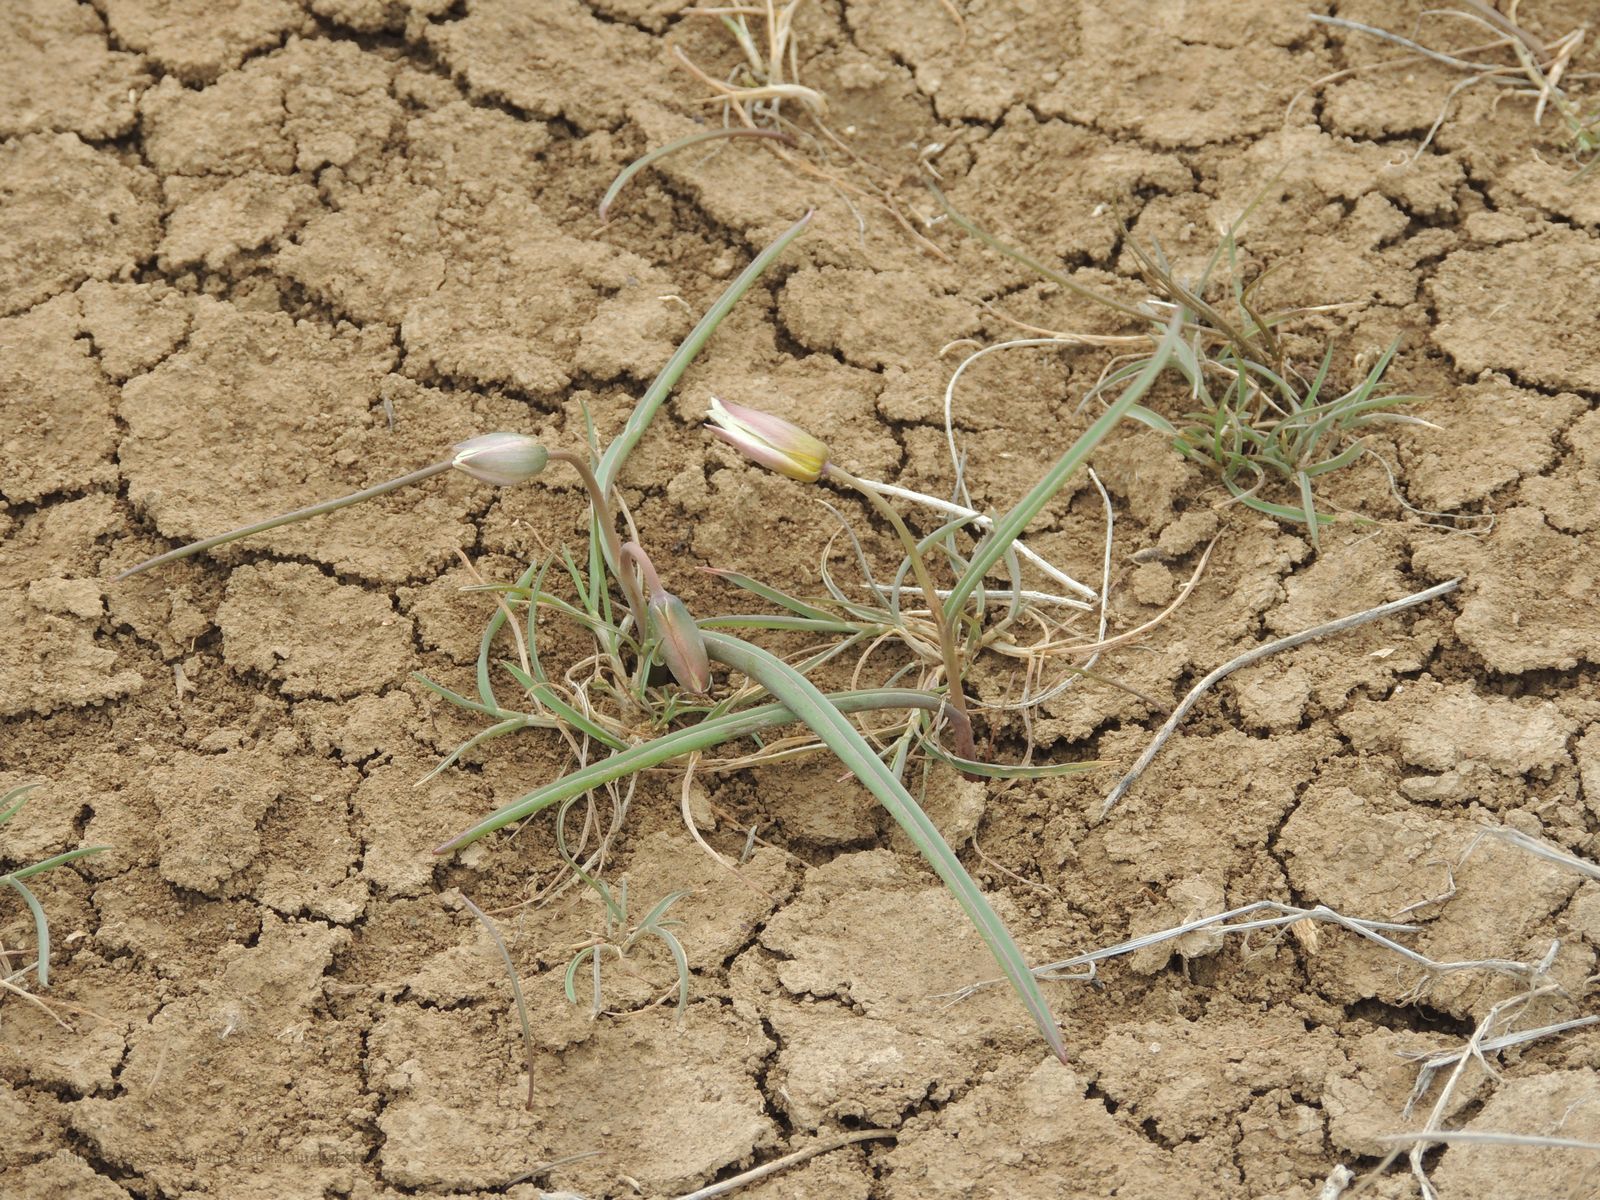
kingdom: Plantae
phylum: Tracheophyta
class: Liliopsida
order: Liliales
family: Liliaceae
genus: Tulipa
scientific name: Tulipa biflora
